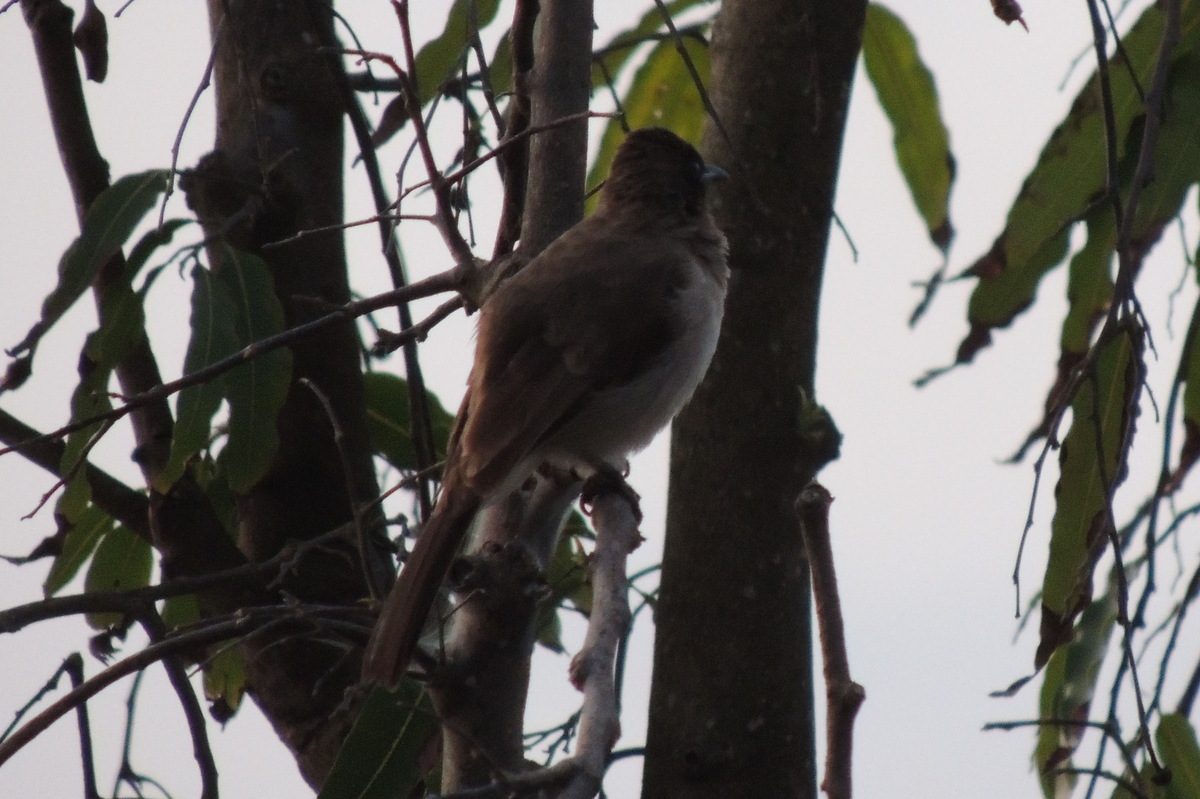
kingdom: Animalia
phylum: Chordata
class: Aves
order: Passeriformes
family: Pycnonotidae
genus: Pycnonotus
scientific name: Pycnonotus barbatus
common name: Common bulbul
